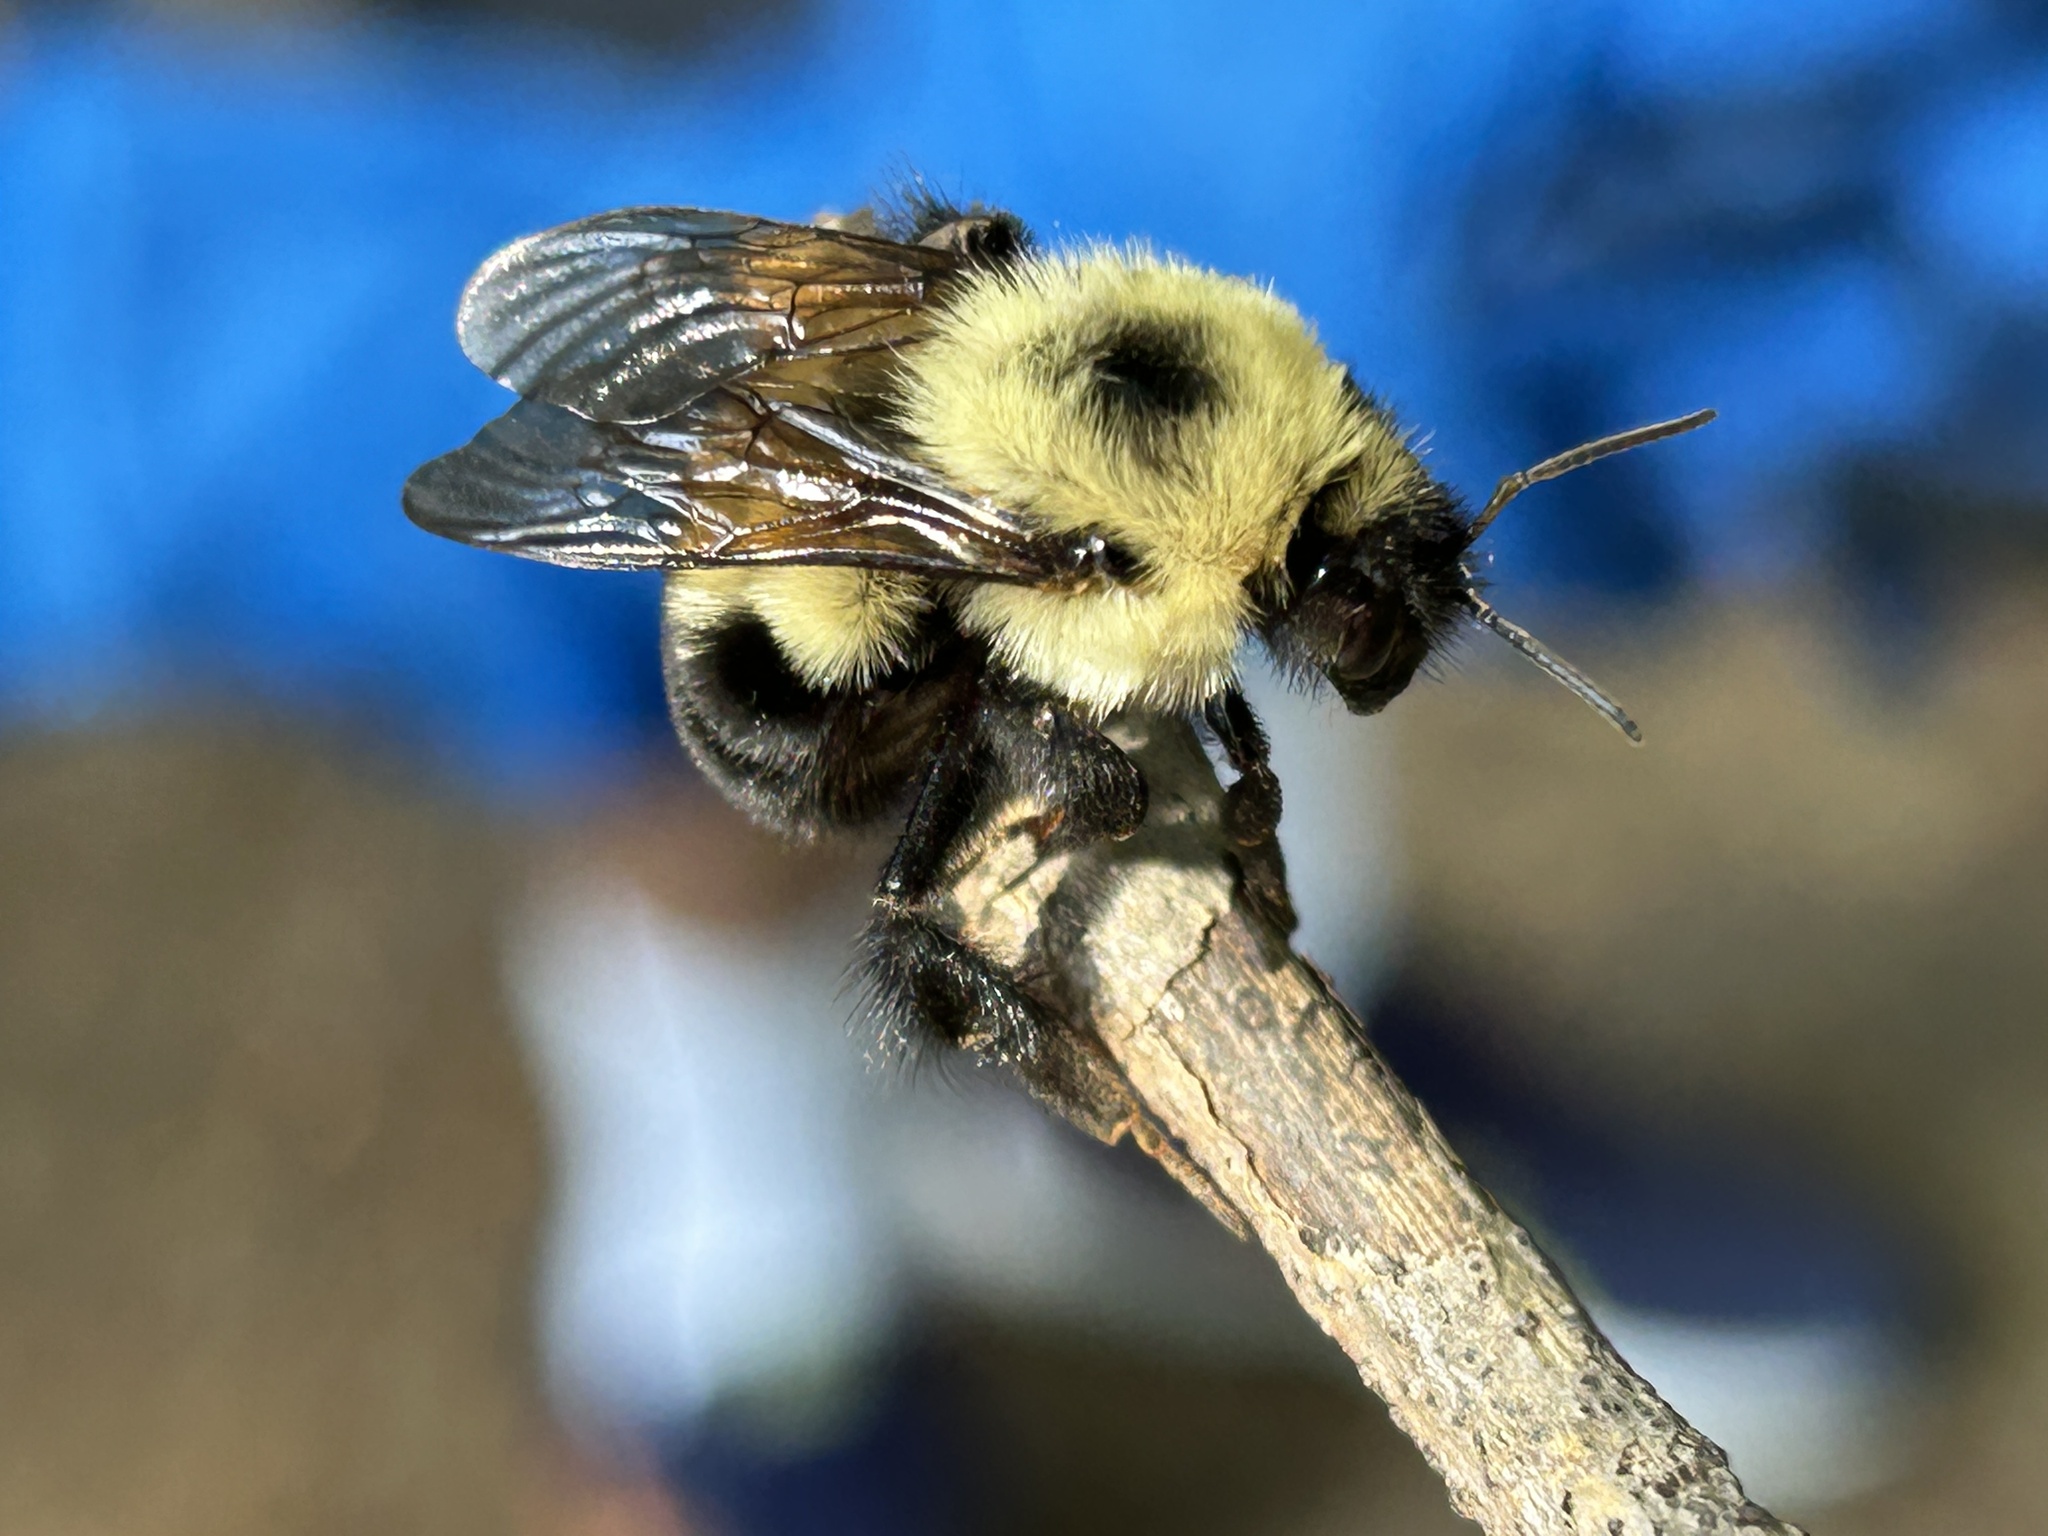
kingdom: Animalia
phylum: Arthropoda
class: Insecta
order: Hymenoptera
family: Apidae
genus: Bombus
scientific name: Bombus bimaculatus
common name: Two-spotted bumble bee
